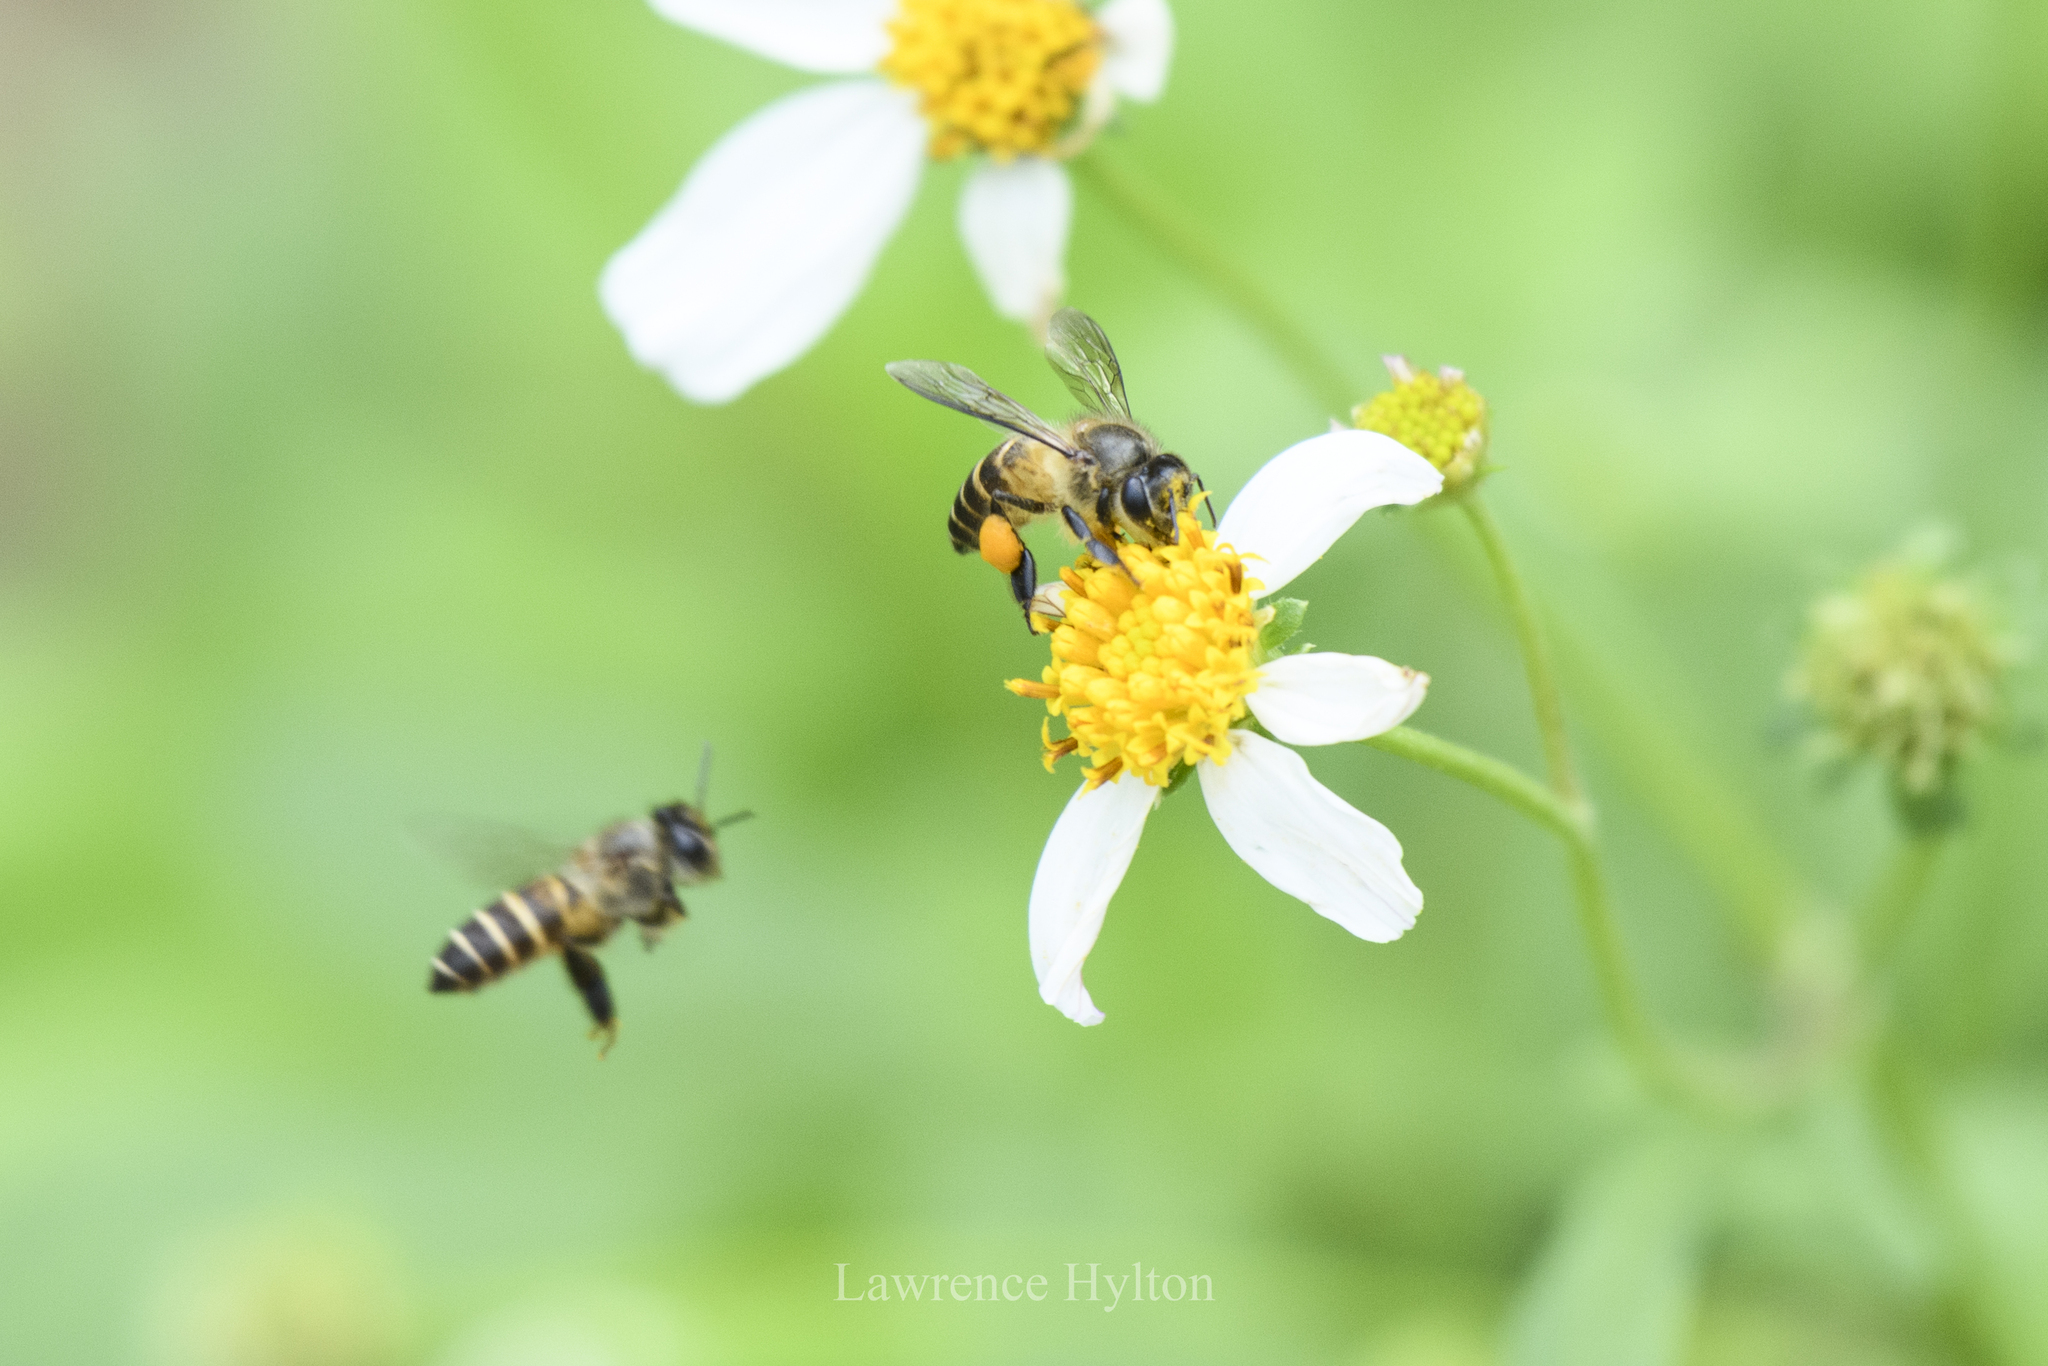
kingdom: Animalia
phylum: Arthropoda
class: Insecta
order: Hymenoptera
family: Apidae
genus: Apis
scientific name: Apis cerana
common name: Honey bee
